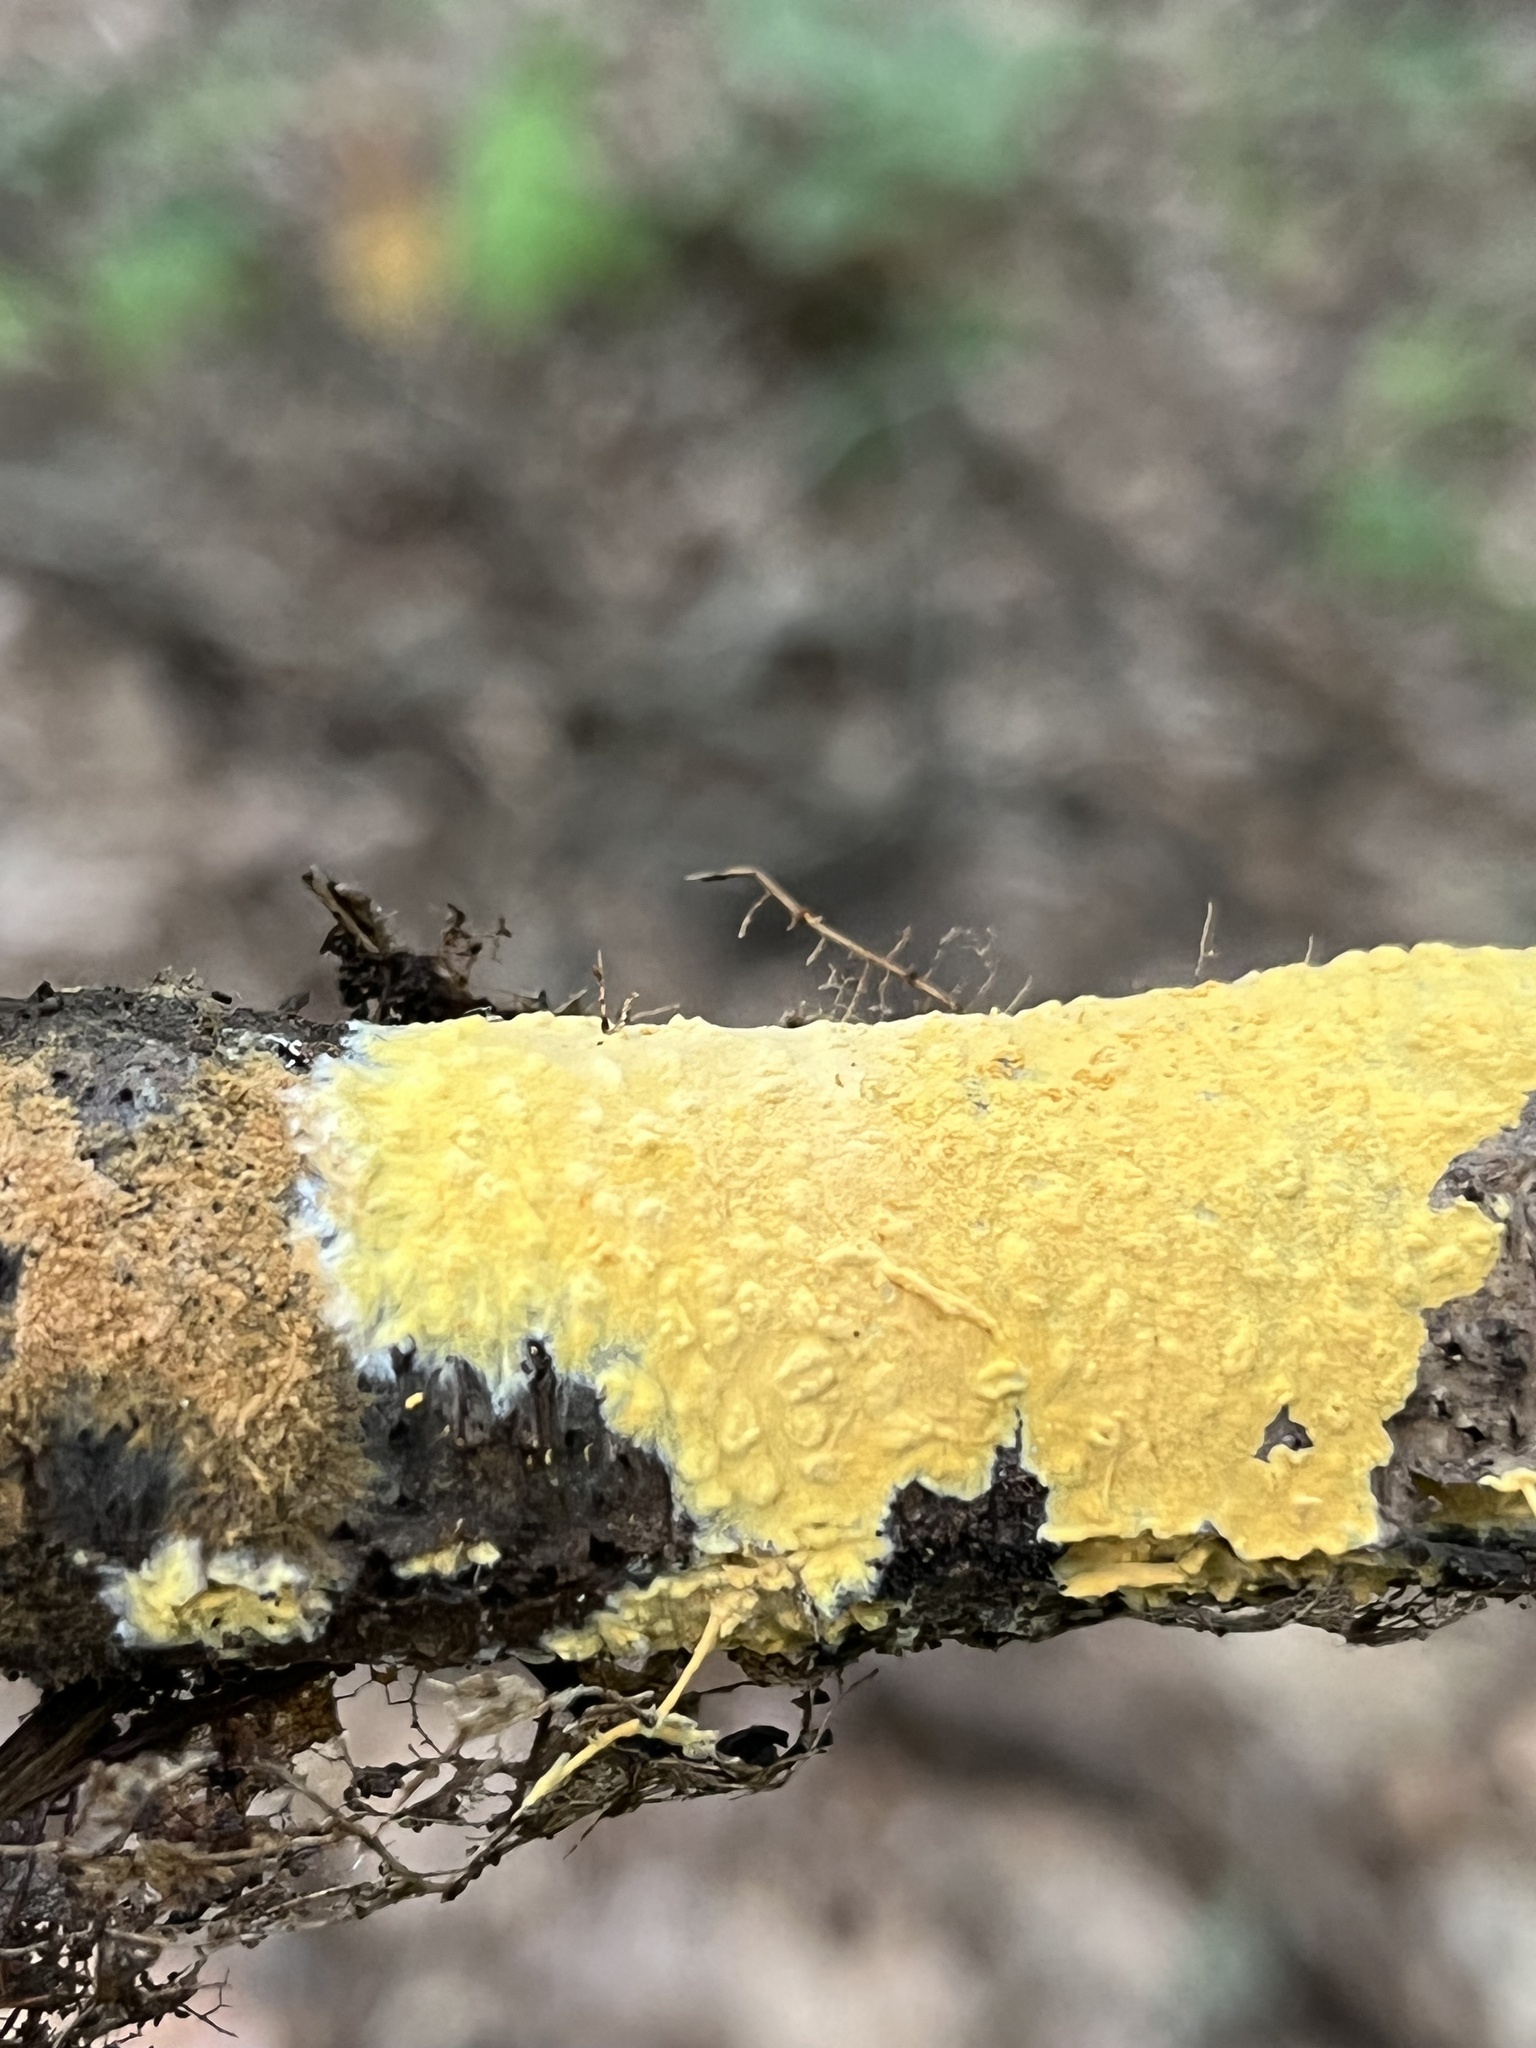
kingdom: Fungi
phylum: Ascomycota
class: Sordariomycetes
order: Hypocreales
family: Hypocreaceae
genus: Trichoderma
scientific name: Trichoderma sulphureum
